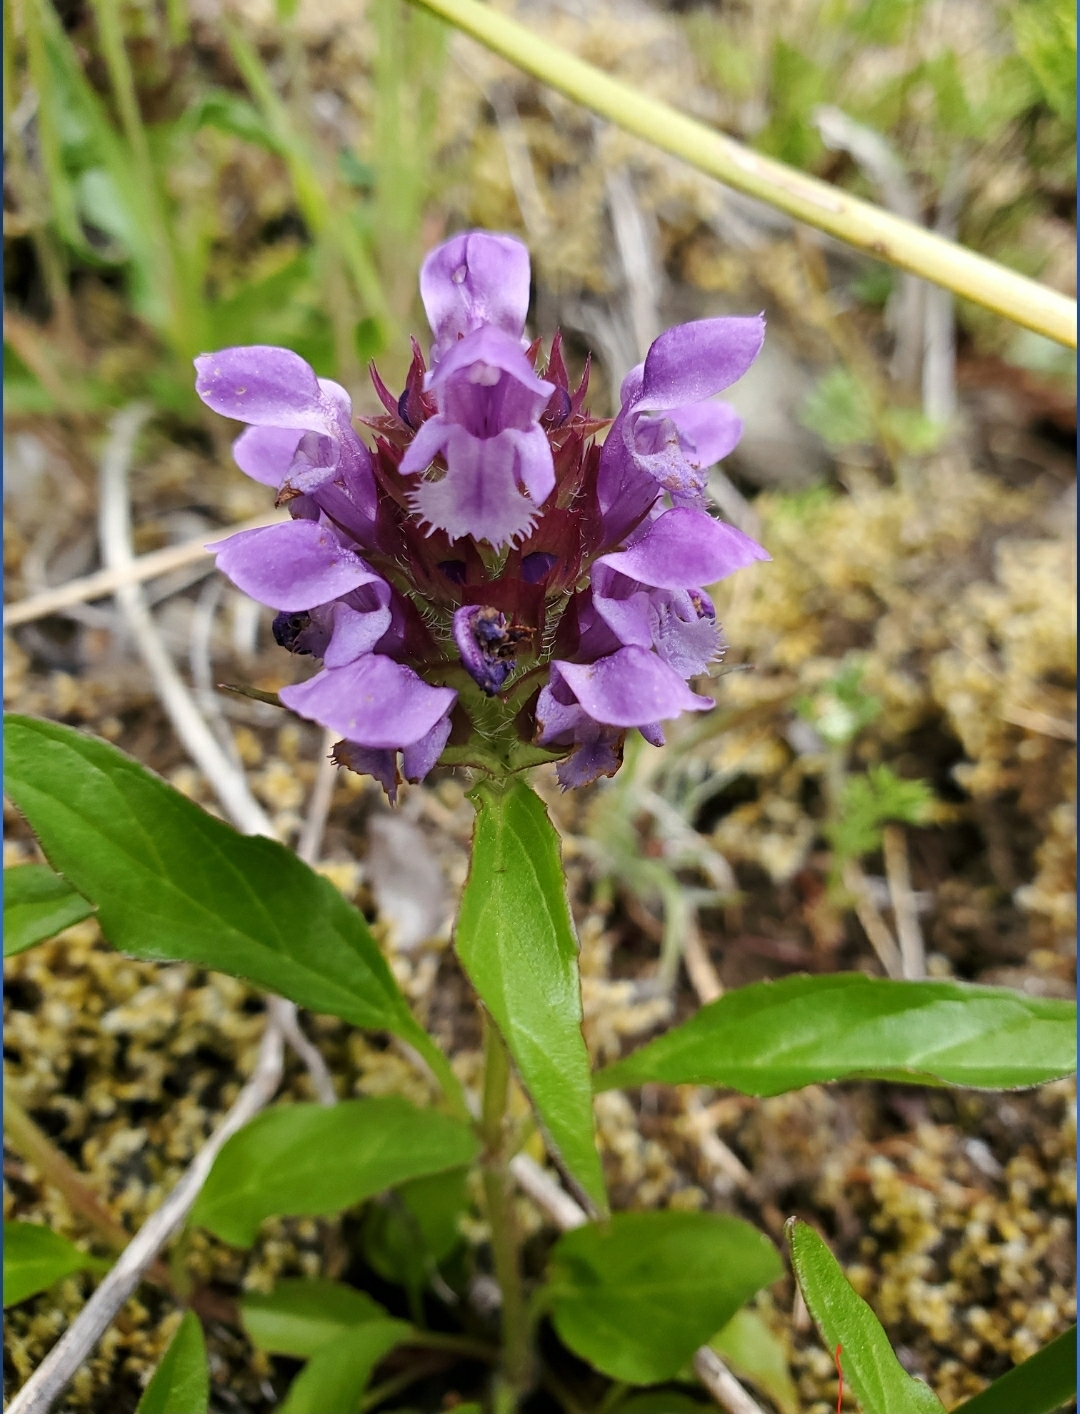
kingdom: Plantae
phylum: Tracheophyta
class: Magnoliopsida
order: Lamiales
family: Lamiaceae
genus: Prunella
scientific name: Prunella vulgaris
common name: Heal-all
